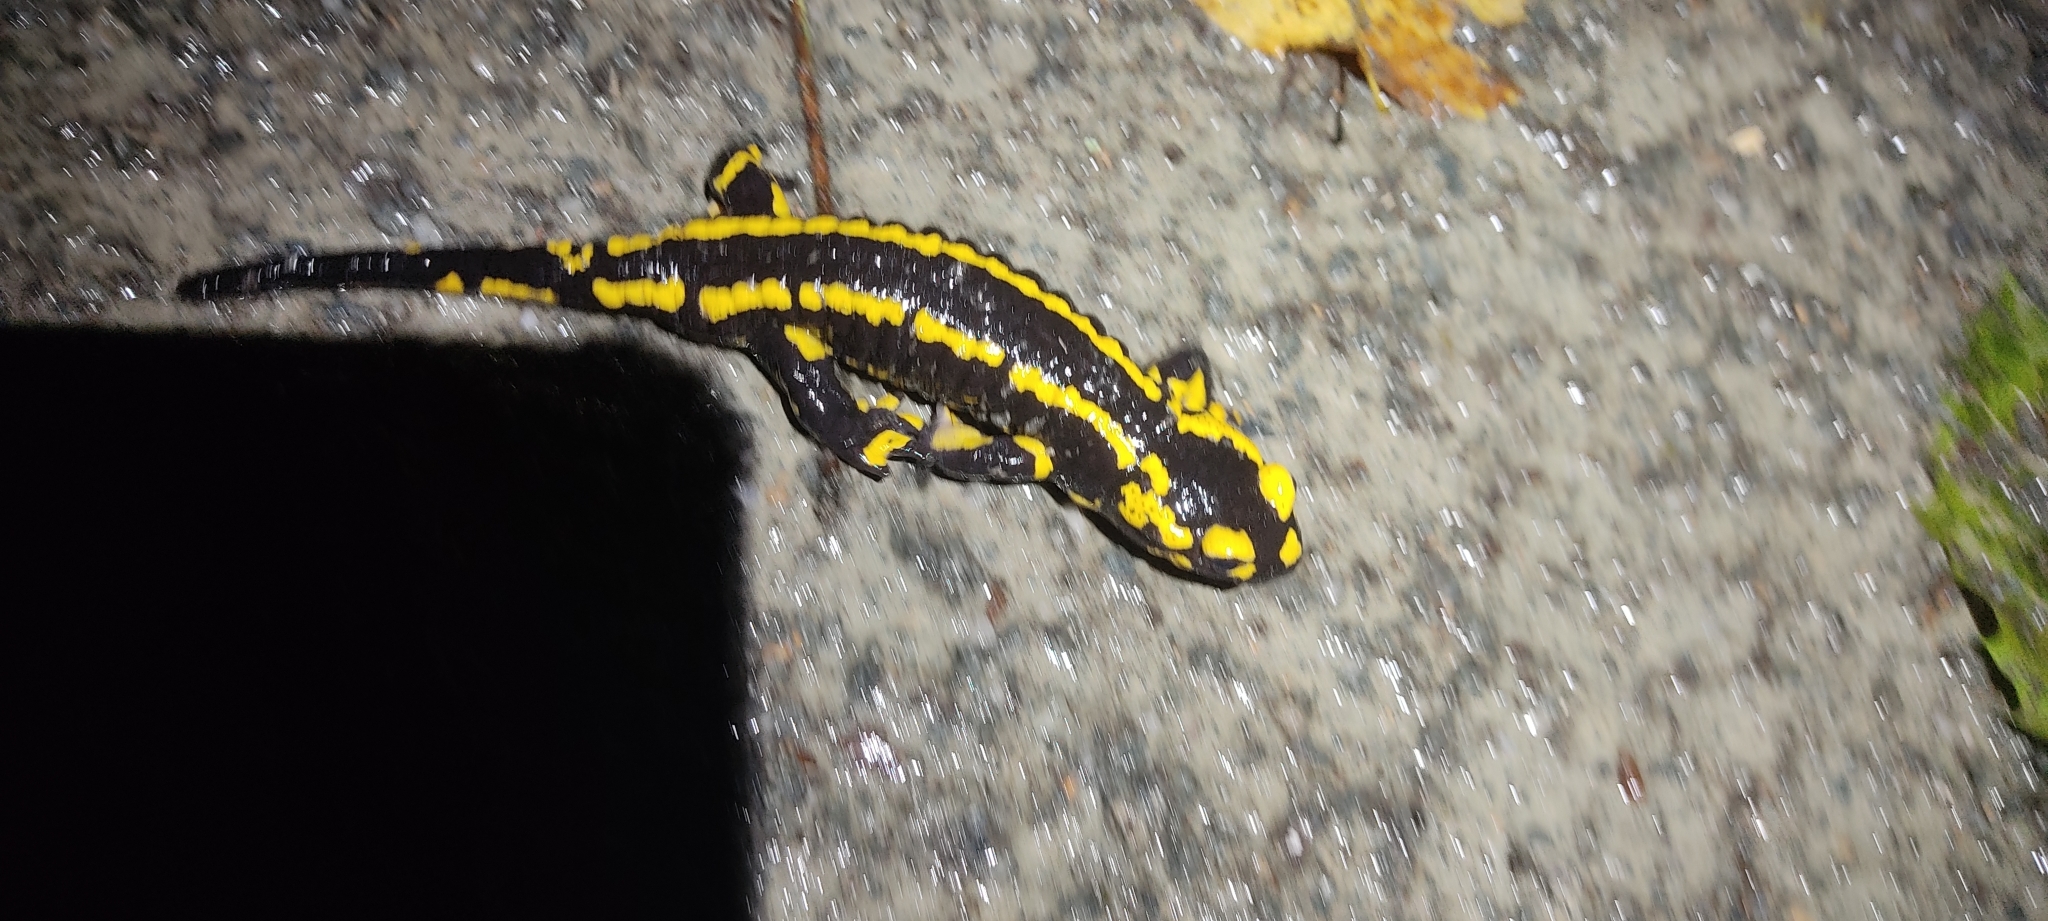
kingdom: Animalia
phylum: Chordata
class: Amphibia
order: Caudata
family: Salamandridae
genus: Salamandra
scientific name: Salamandra salamandra
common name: Fire salamander
